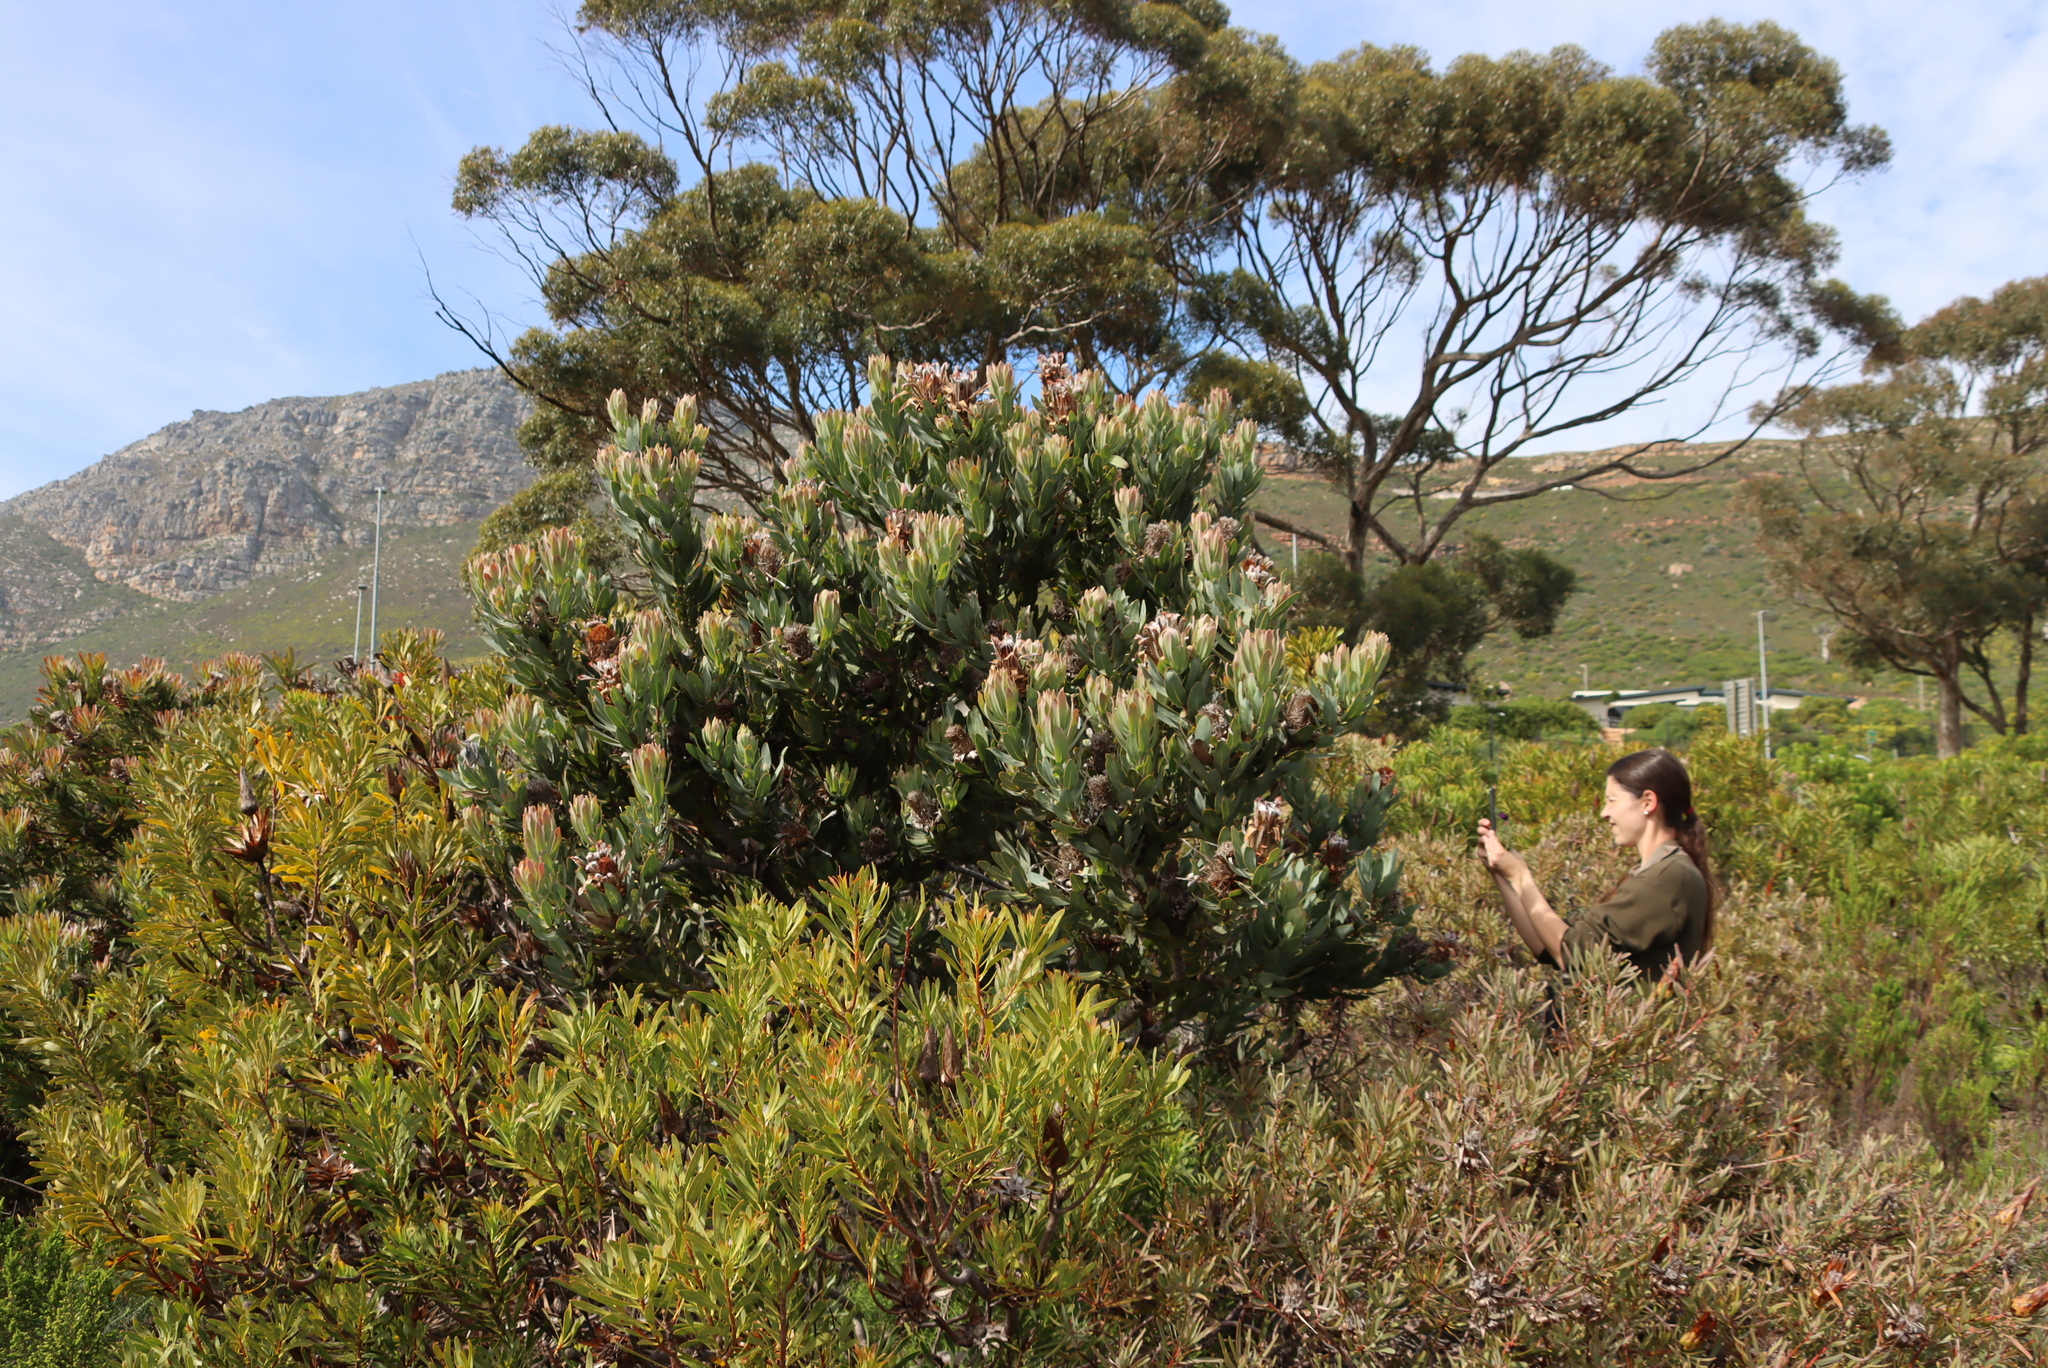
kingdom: Plantae
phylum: Tracheophyta
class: Magnoliopsida
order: Proteales
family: Proteaceae
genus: Protea
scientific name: Protea laurifolia
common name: Grey-leaf sugarbsh
